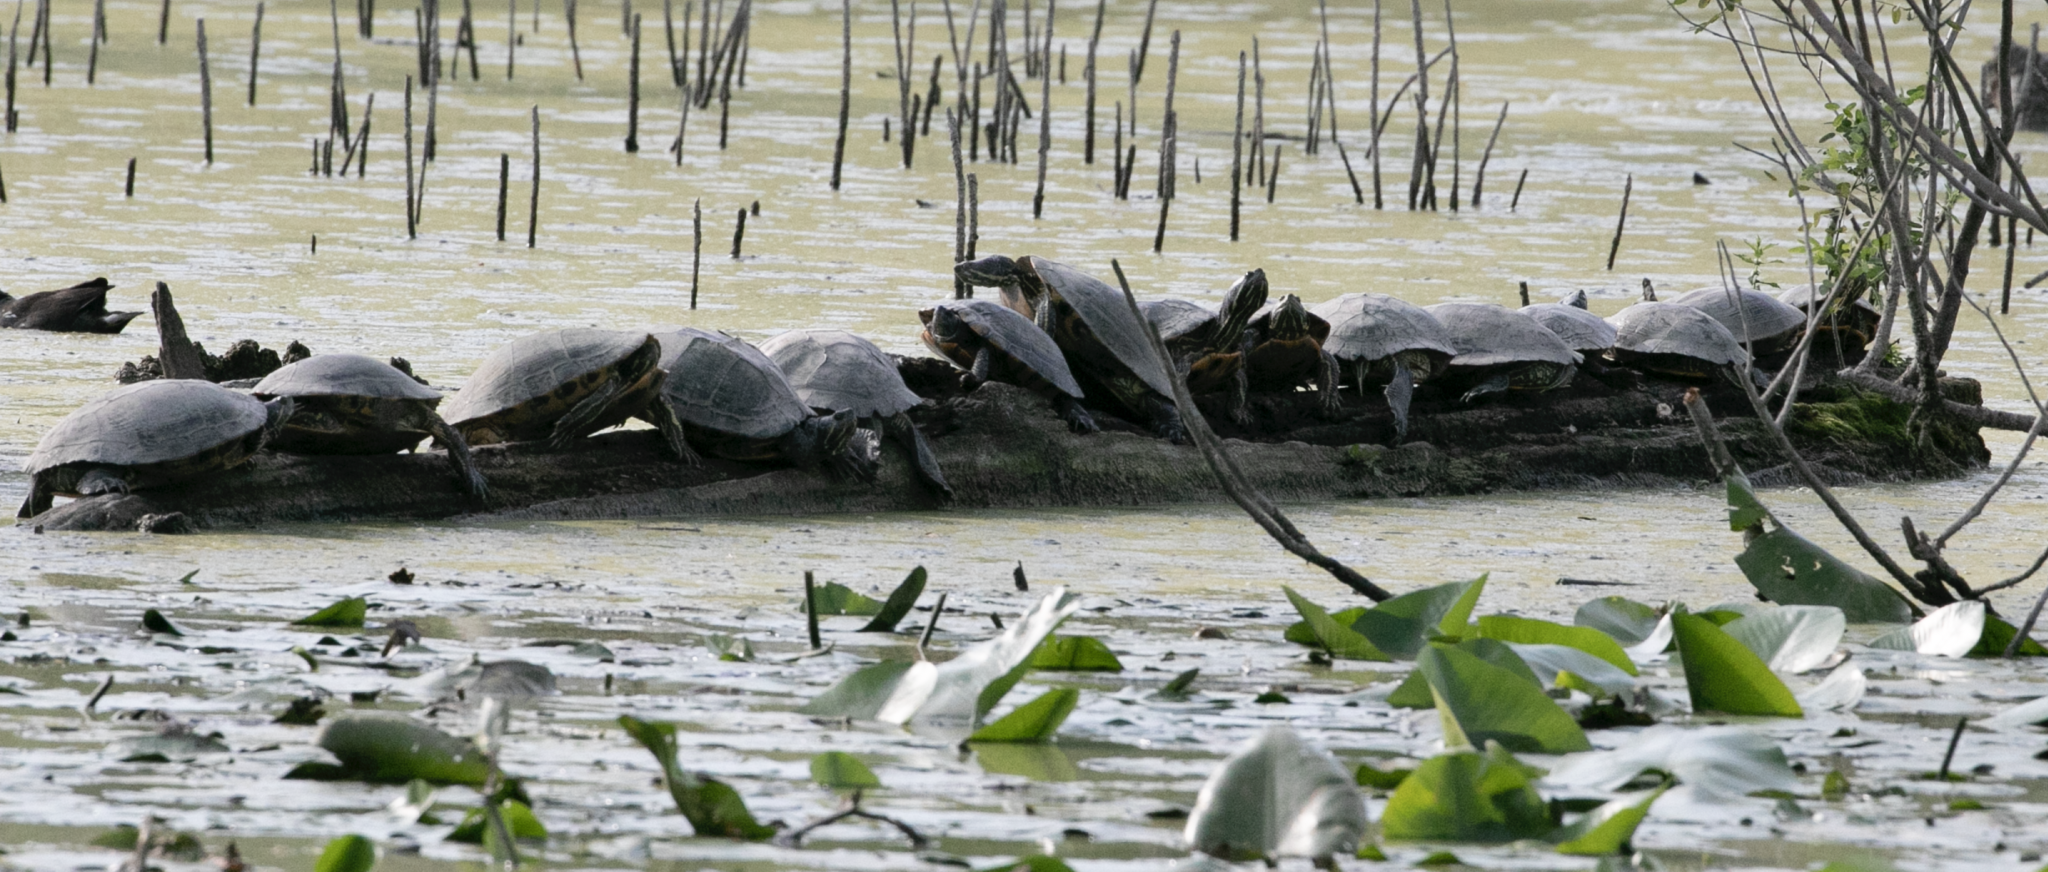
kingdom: Animalia
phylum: Chordata
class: Testudines
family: Emydidae
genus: Trachemys
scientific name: Trachemys scripta
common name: Slider
